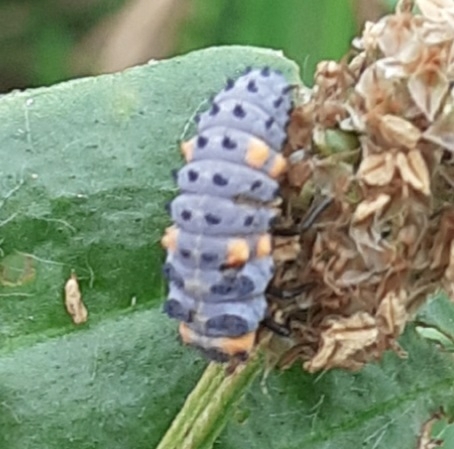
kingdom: Animalia
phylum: Arthropoda
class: Insecta
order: Coleoptera
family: Coccinellidae
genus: Coccinella
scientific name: Coccinella septempunctata
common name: Sevenspotted lady beetle
